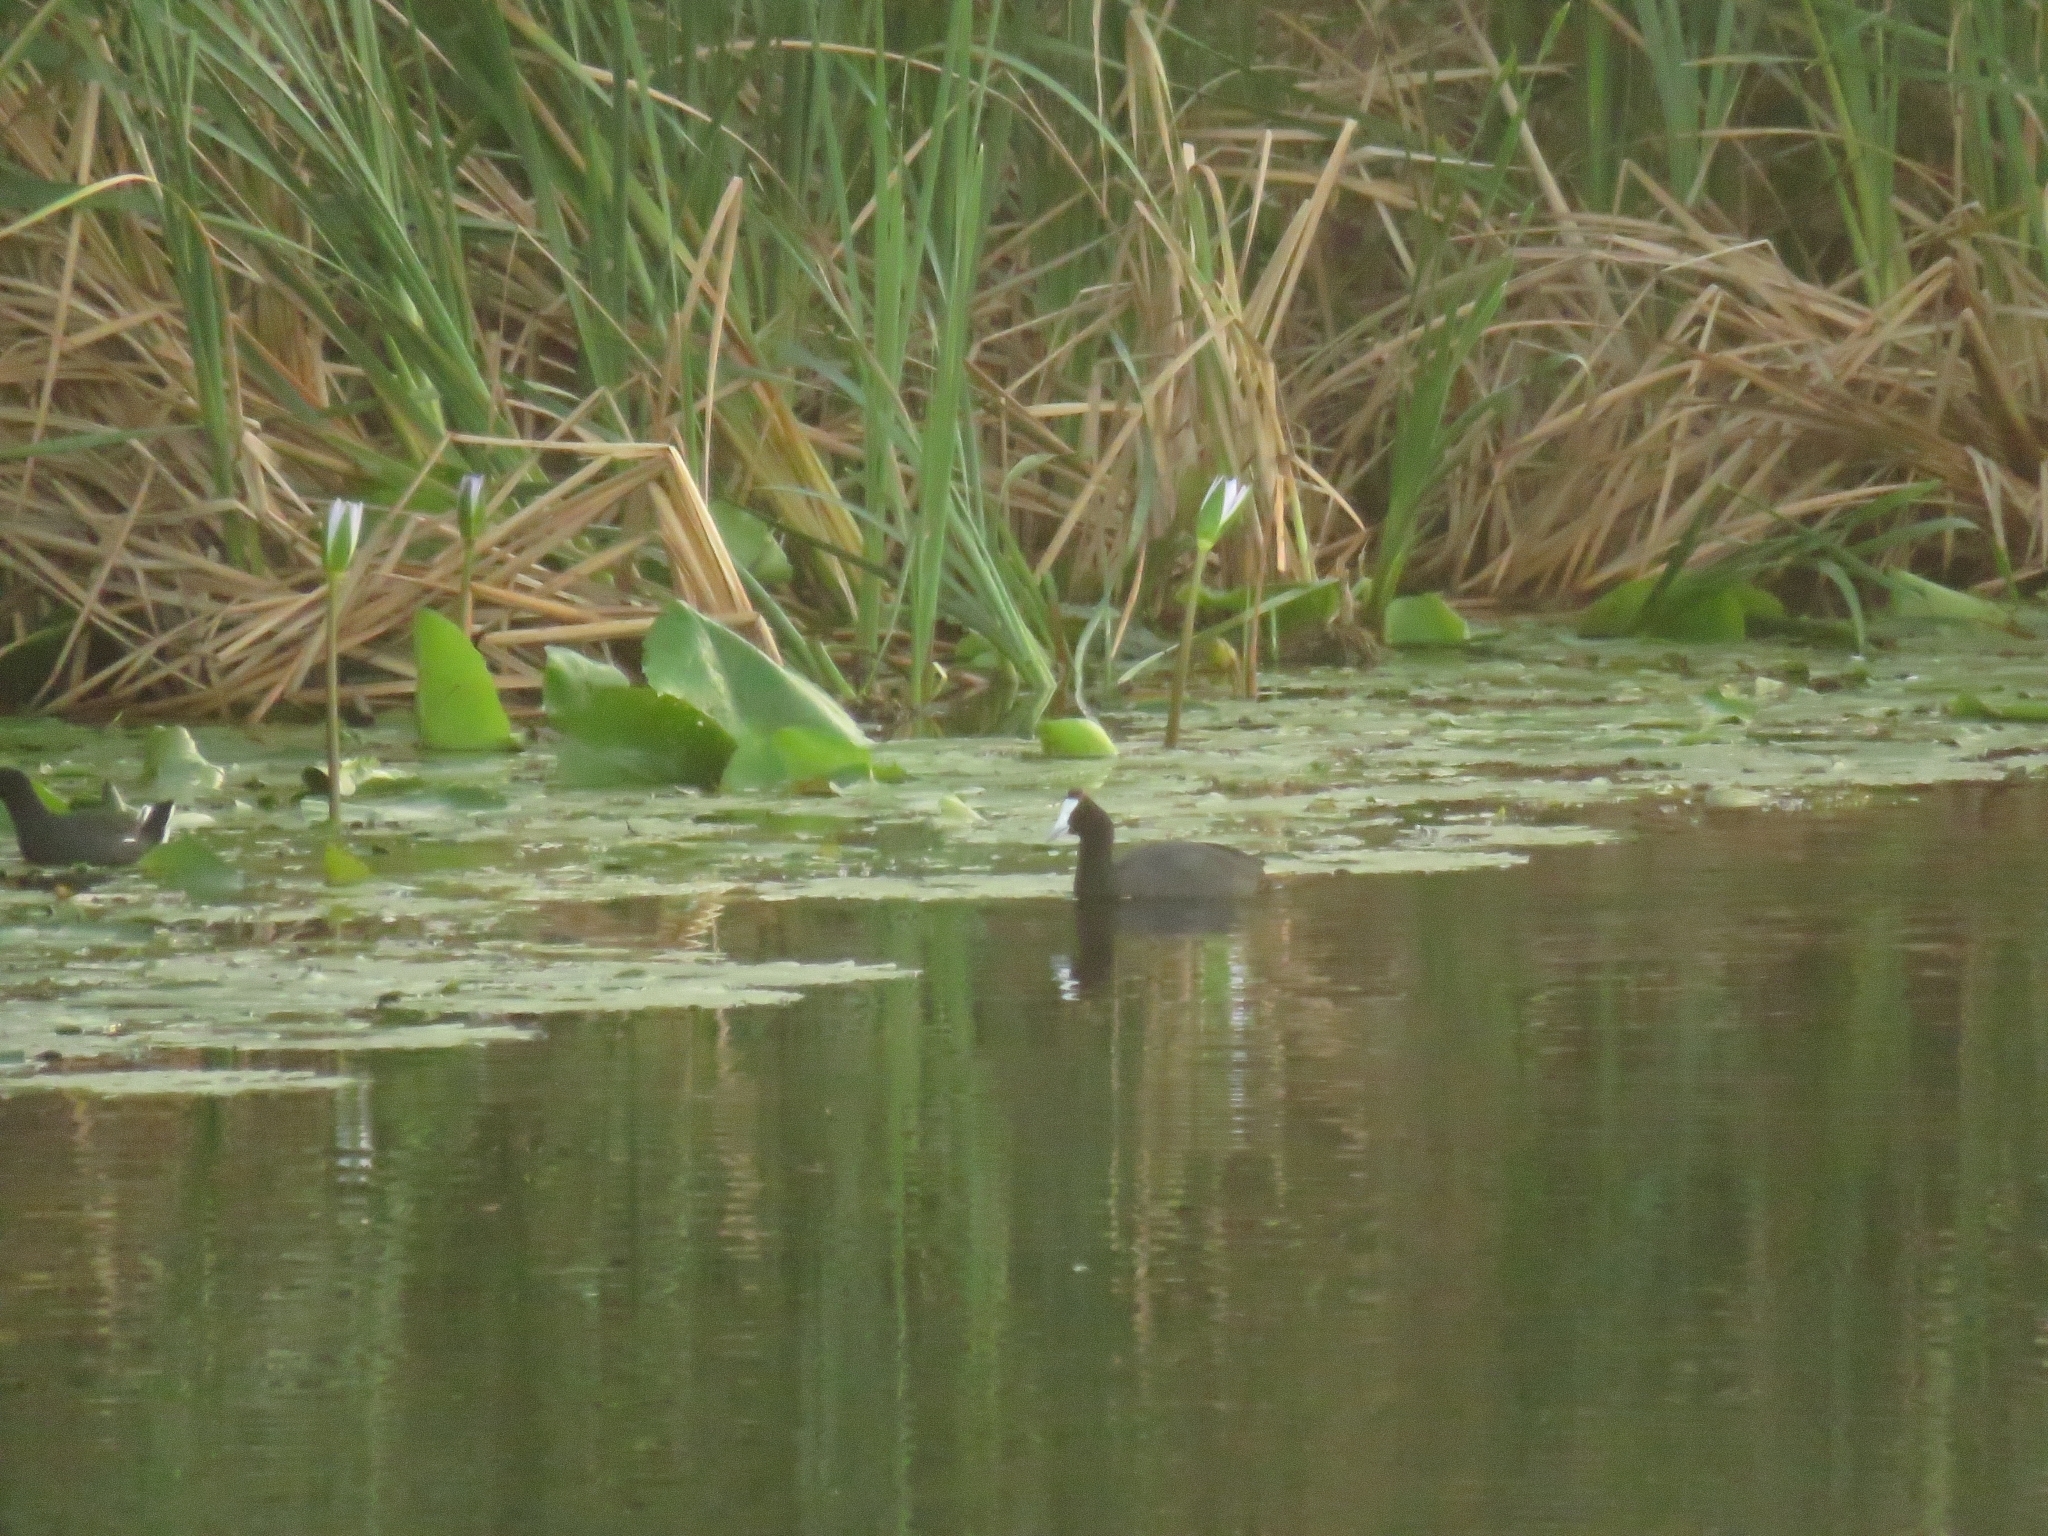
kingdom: Animalia
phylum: Chordata
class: Aves
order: Gruiformes
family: Rallidae
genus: Fulica
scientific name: Fulica cristata
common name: Red-knobbed coot
